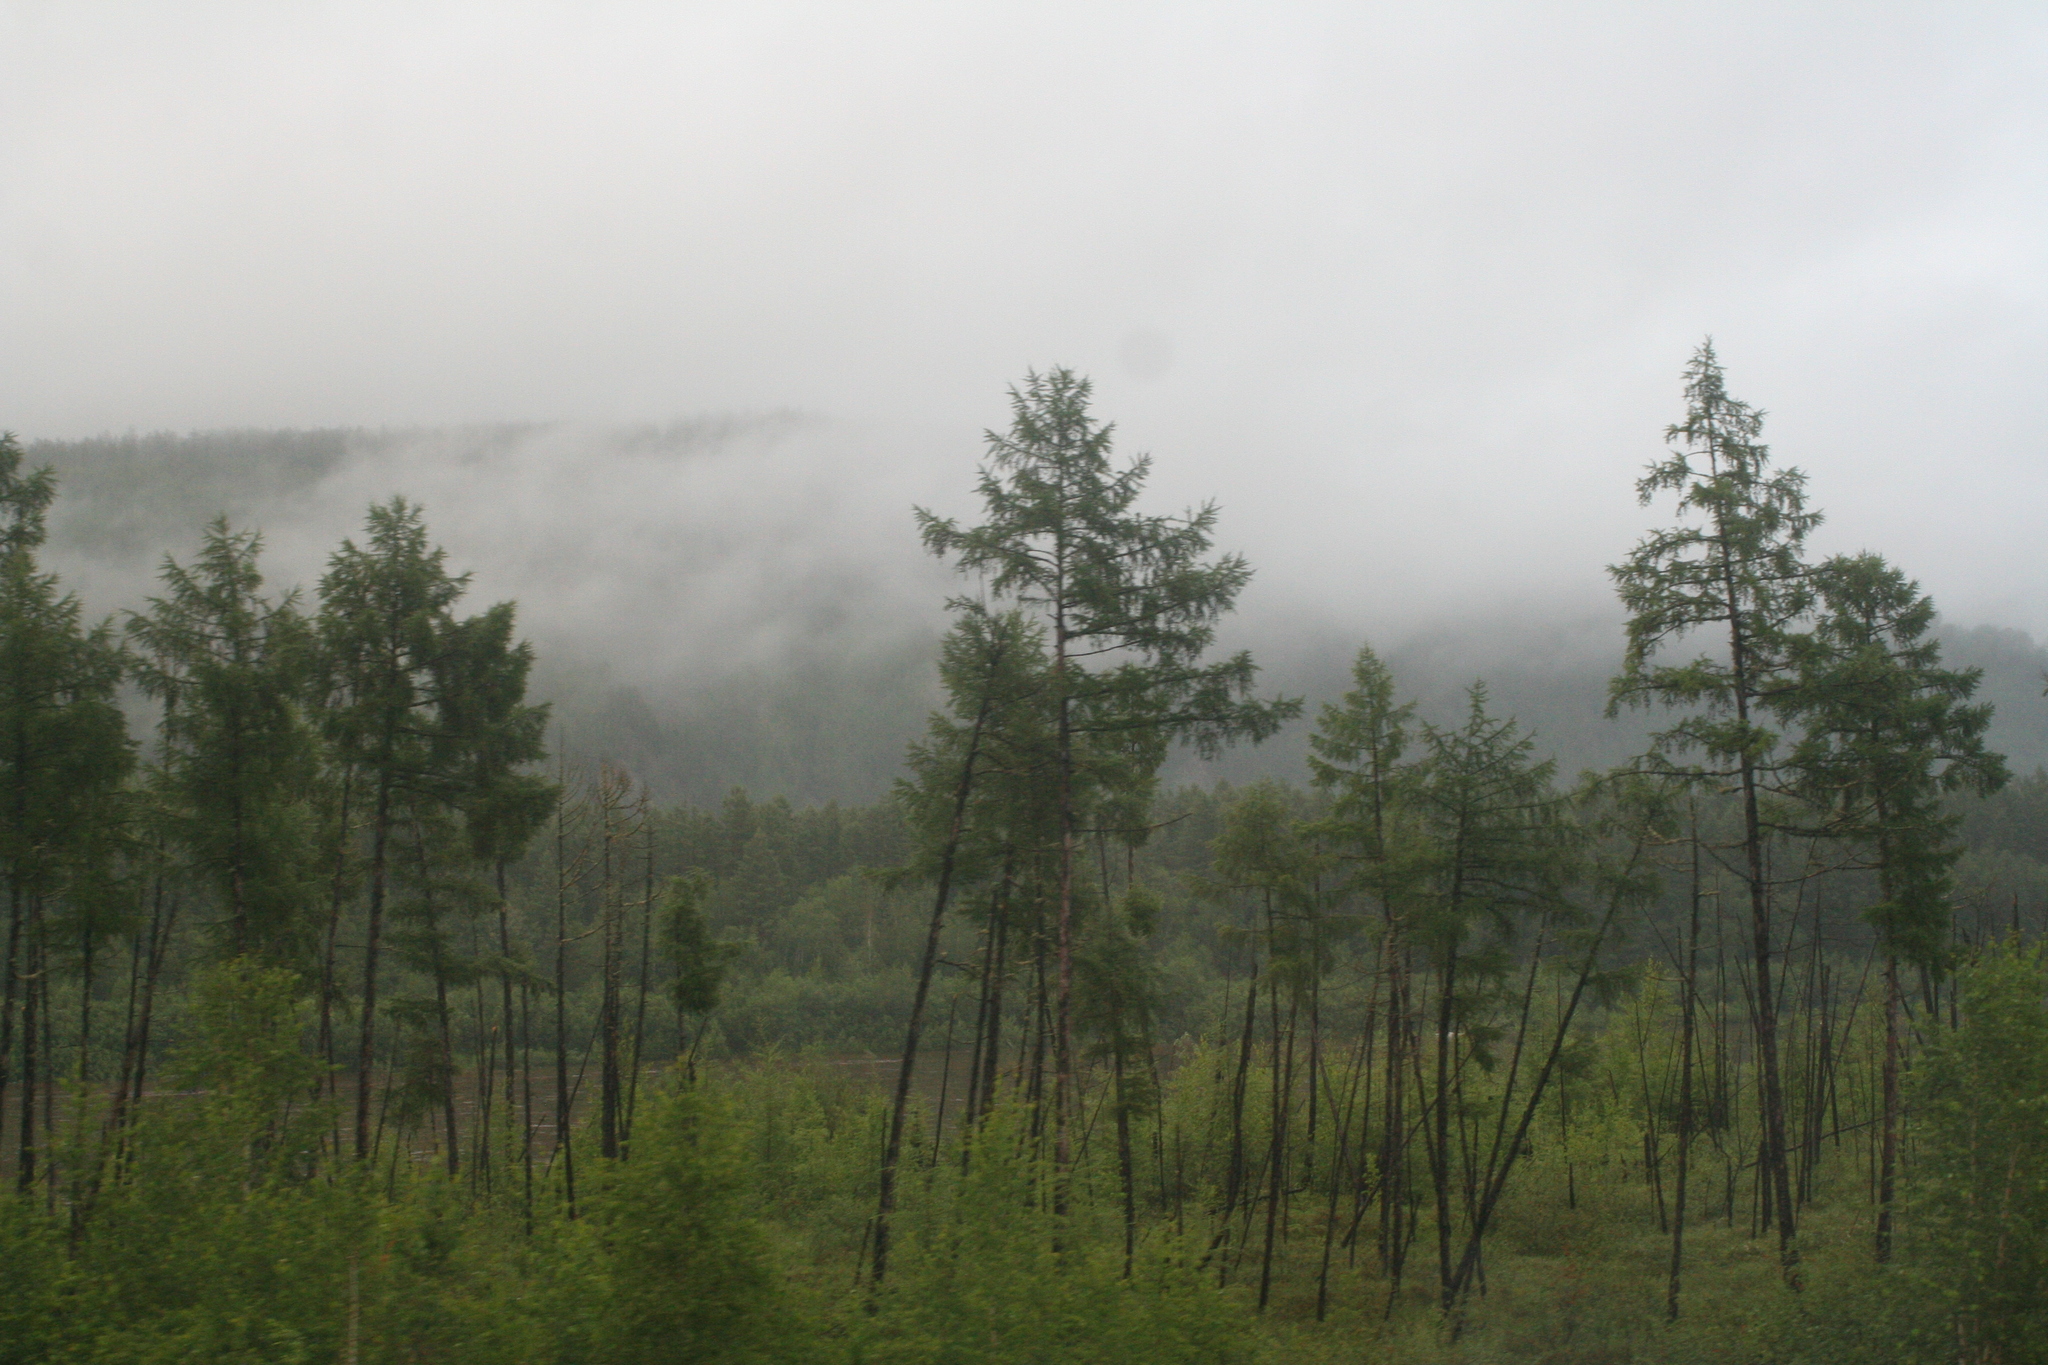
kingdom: Plantae
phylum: Tracheophyta
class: Pinopsida
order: Pinales
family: Pinaceae
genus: Larix
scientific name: Larix gmelinii
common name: Dahurian larch
